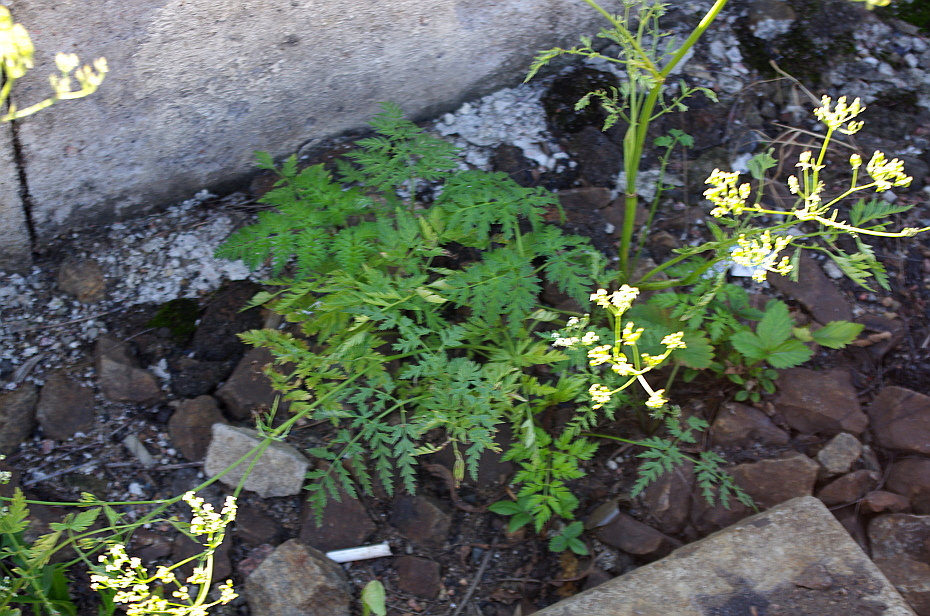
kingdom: Plantae
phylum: Tracheophyta
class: Magnoliopsida
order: Apiales
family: Apiaceae
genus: Anthriscus
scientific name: Anthriscus sylvestris
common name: Cow parsley
